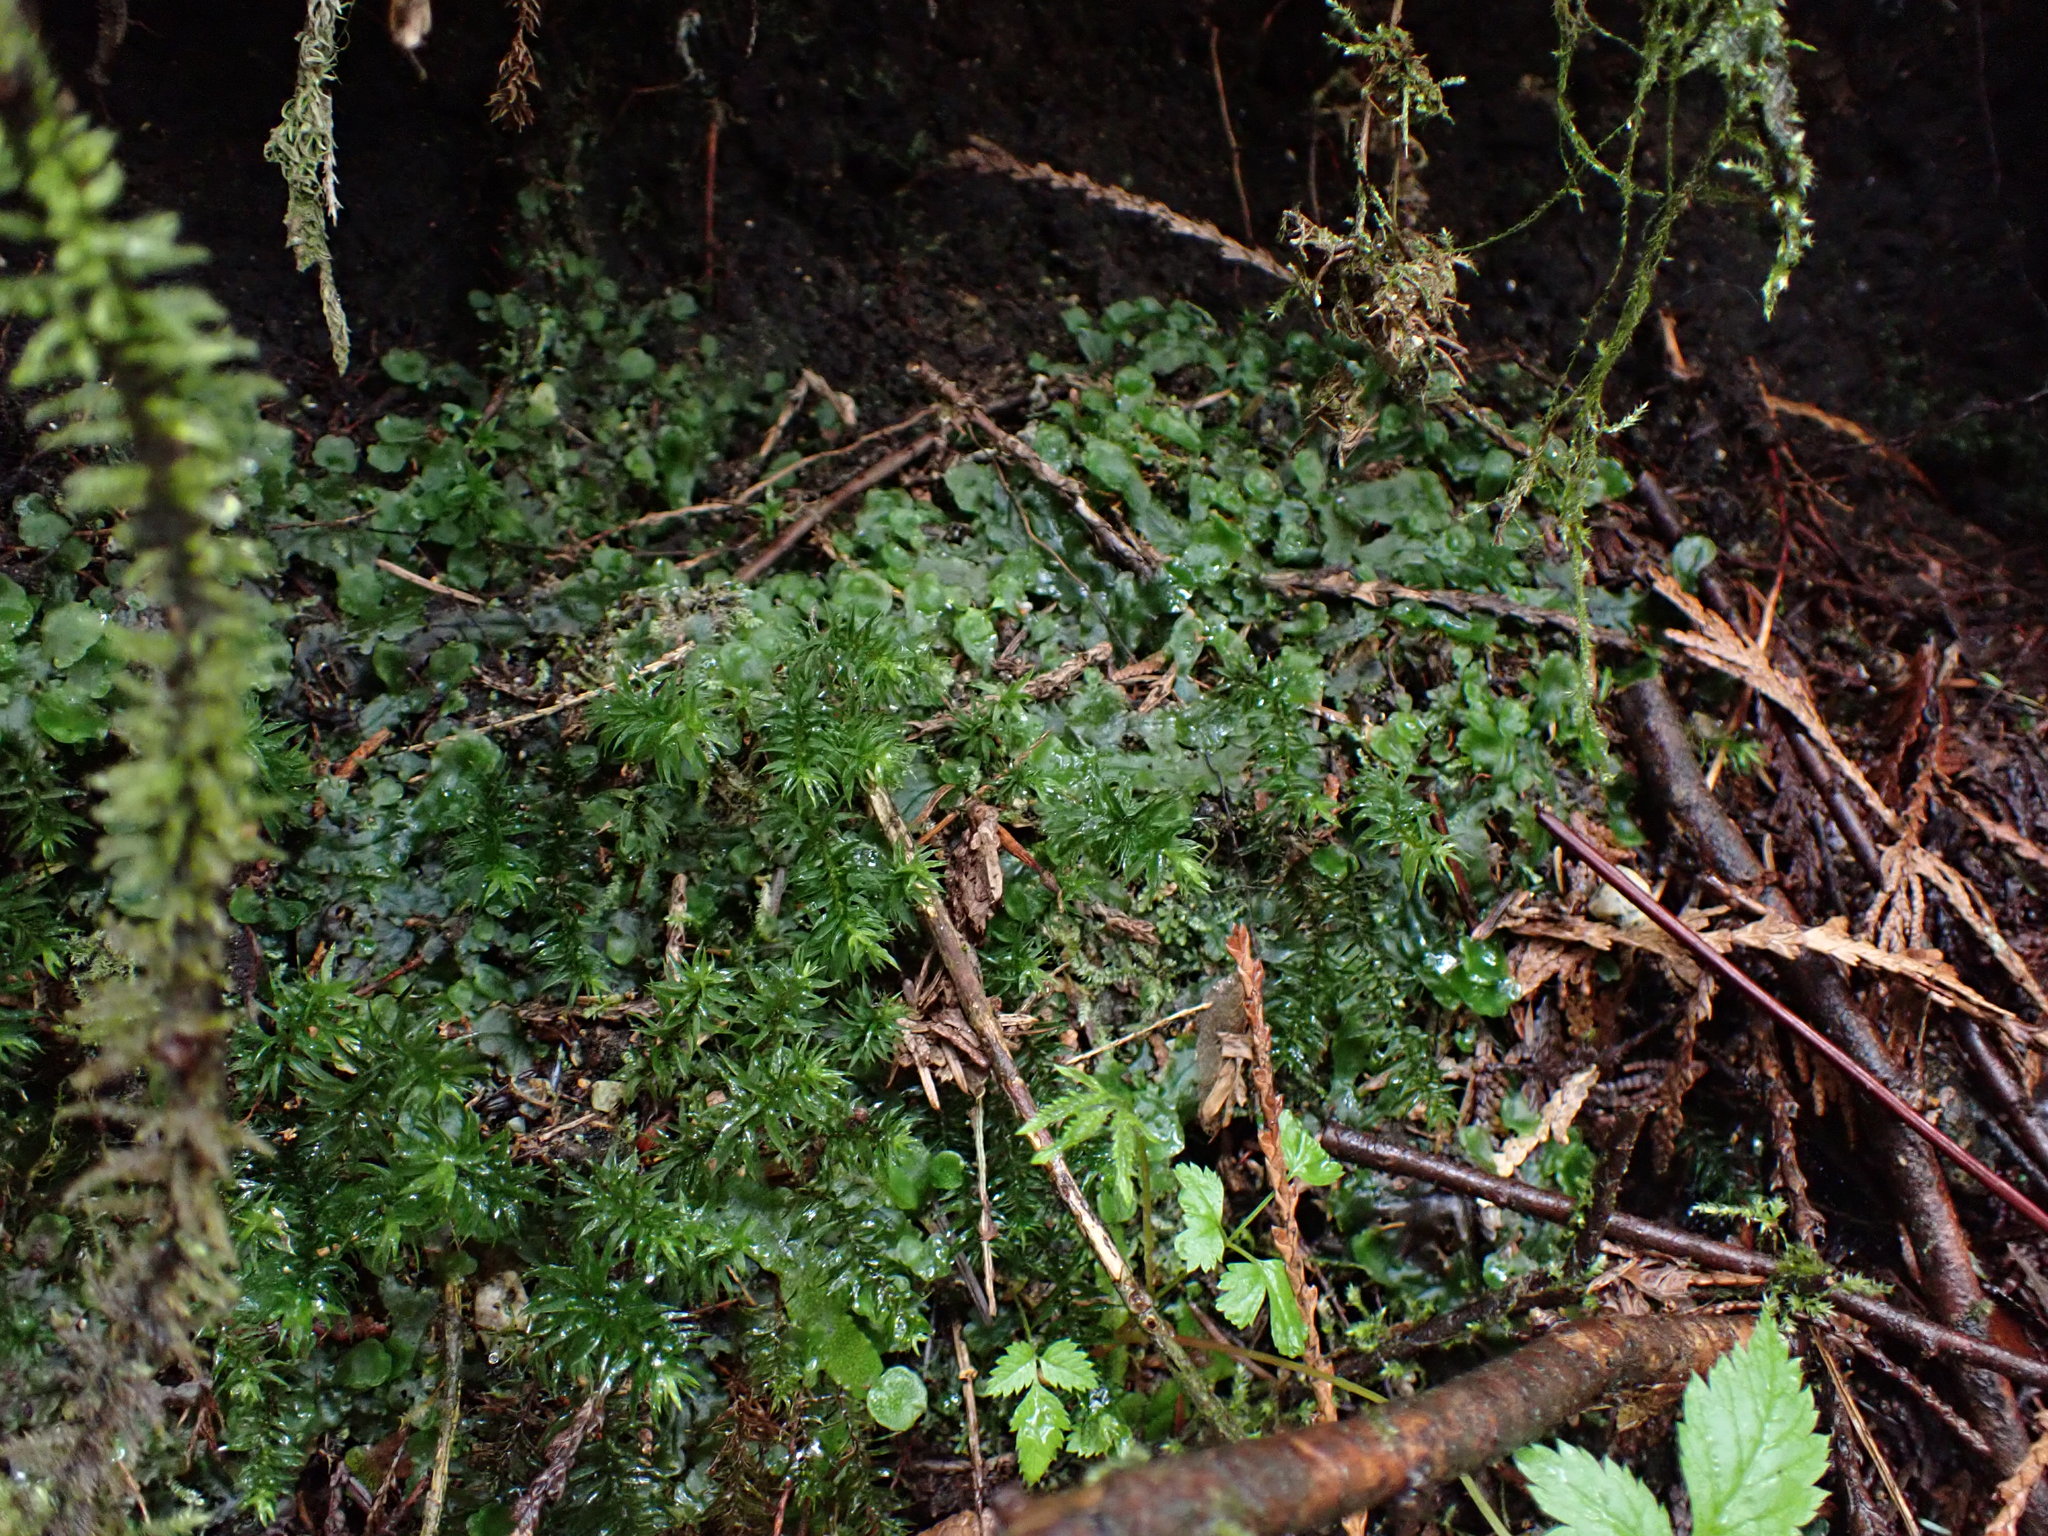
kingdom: Plantae
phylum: Bryophyta
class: Polytrichopsida
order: Polytrichales
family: Polytrichaceae
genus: Pogonatum
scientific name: Pogonatum contortum
